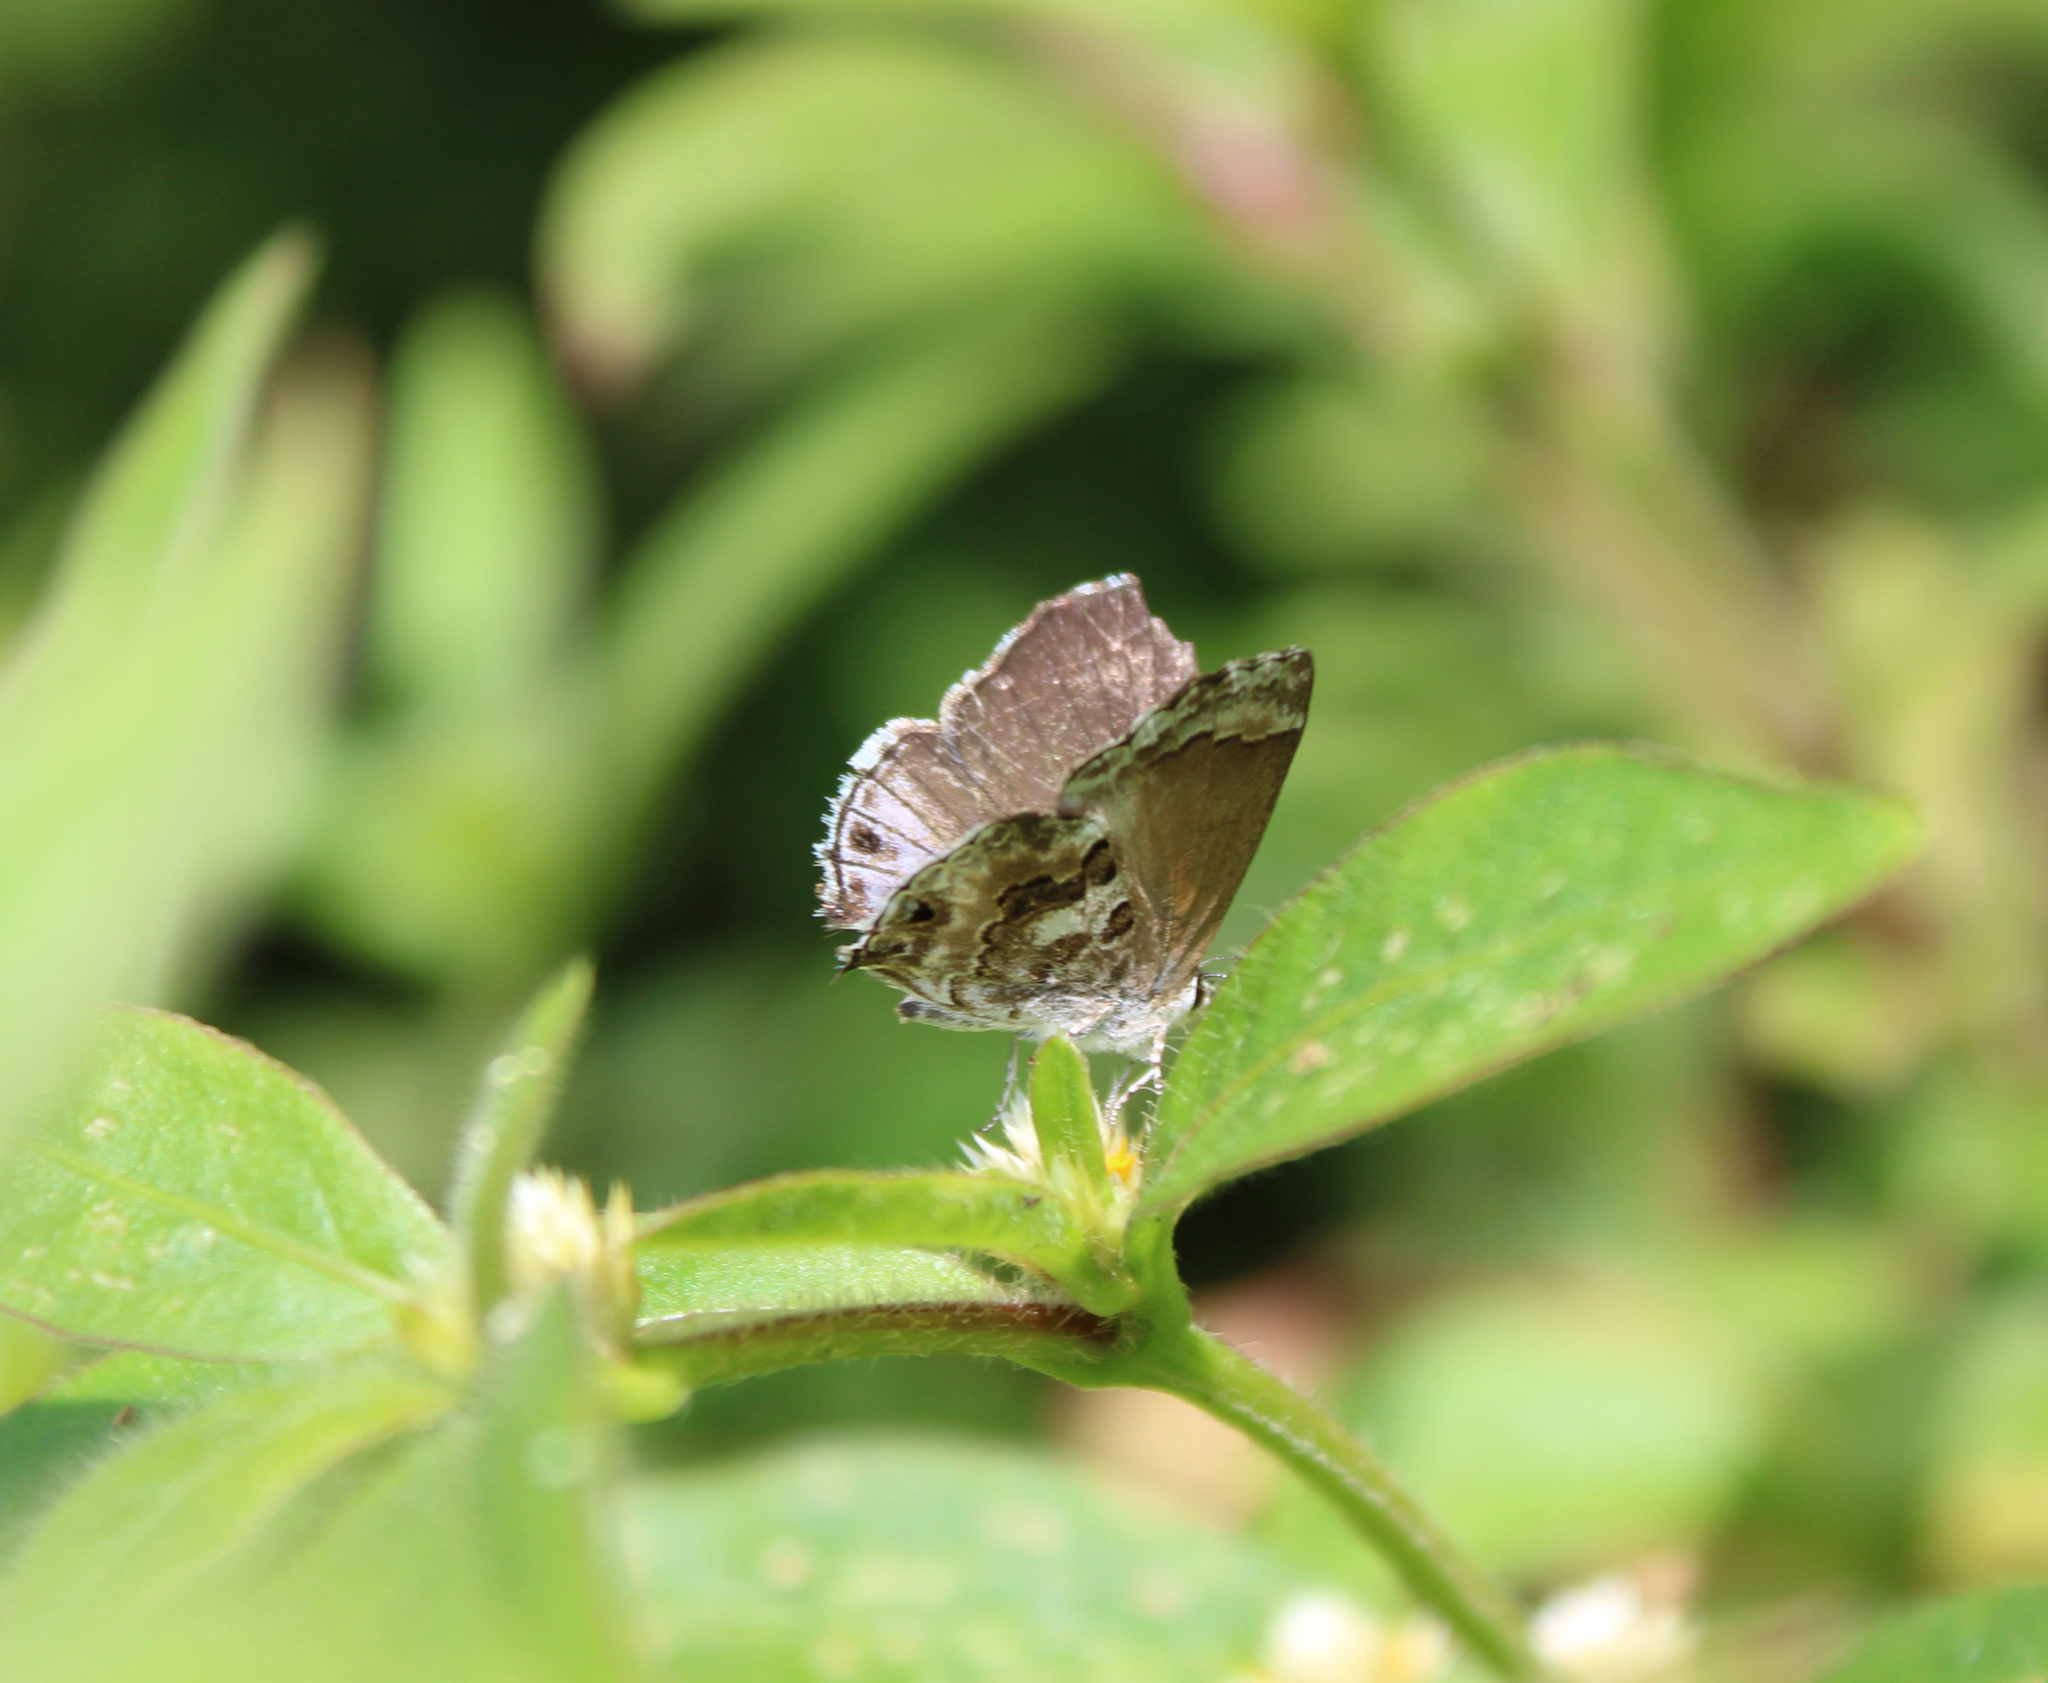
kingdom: Animalia
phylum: Arthropoda
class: Insecta
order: Lepidoptera
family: Lycaenidae
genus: Thecla
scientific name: Thecla cestri
